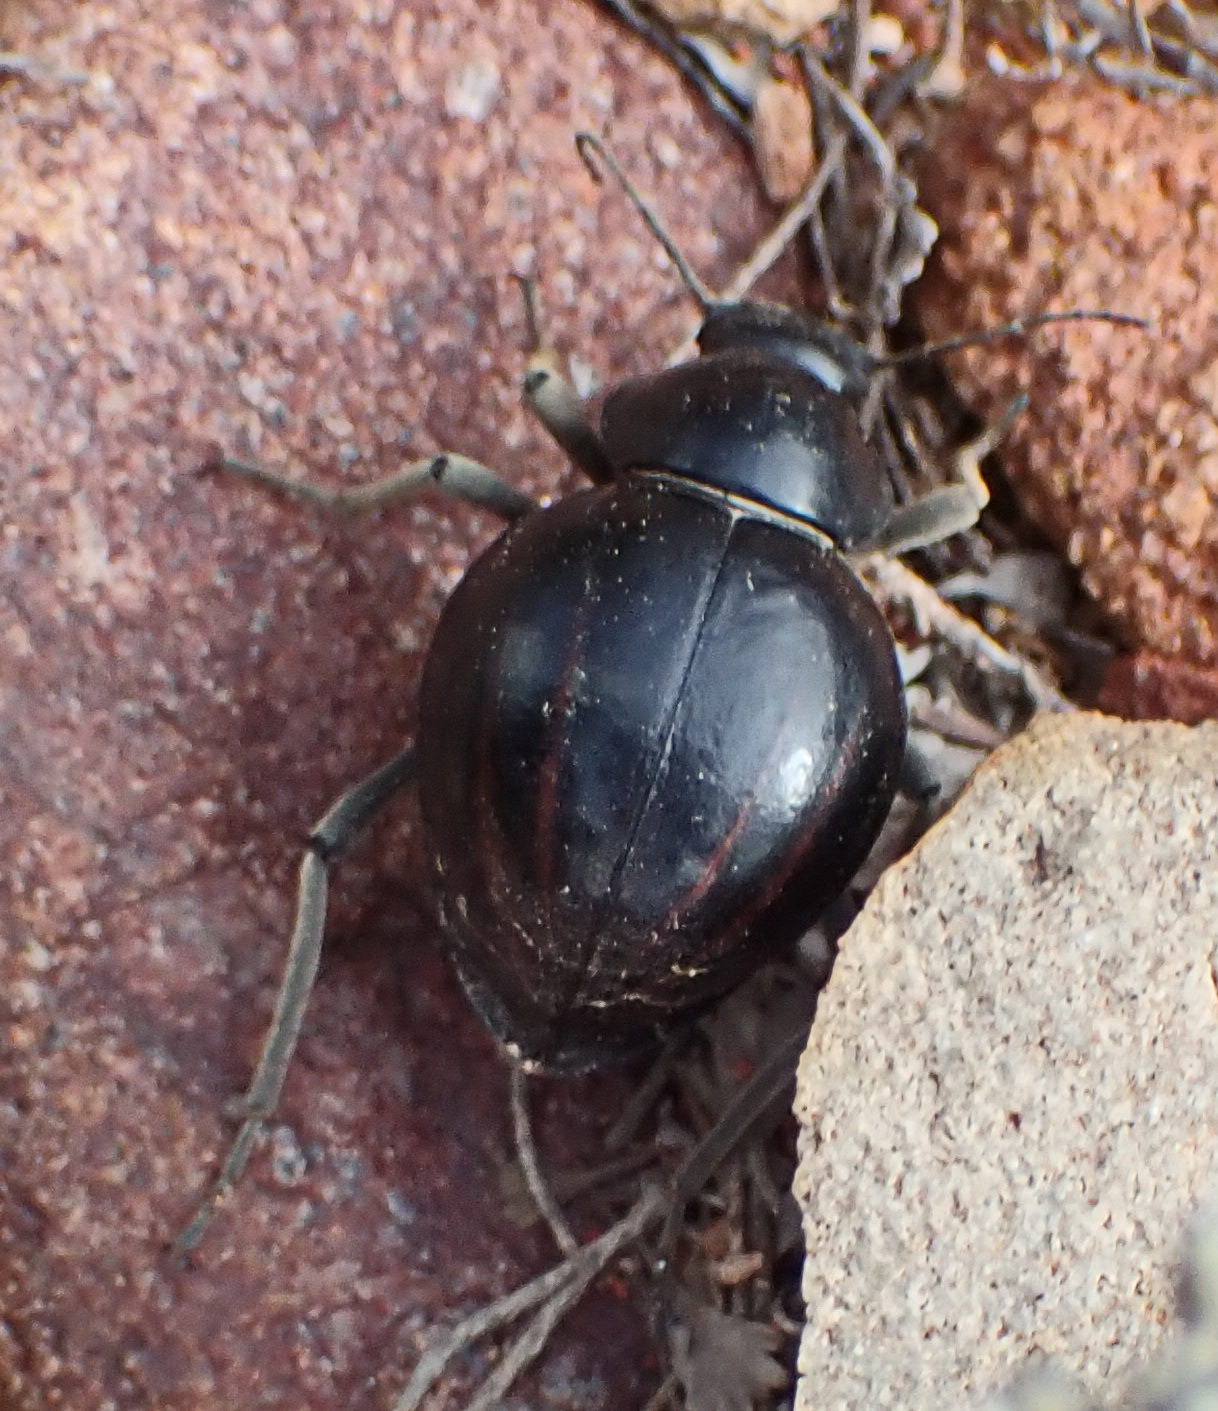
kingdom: Animalia
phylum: Arthropoda
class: Insecta
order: Coleoptera
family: Tenebrionidae
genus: Mariazofia
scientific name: Mariazofia
